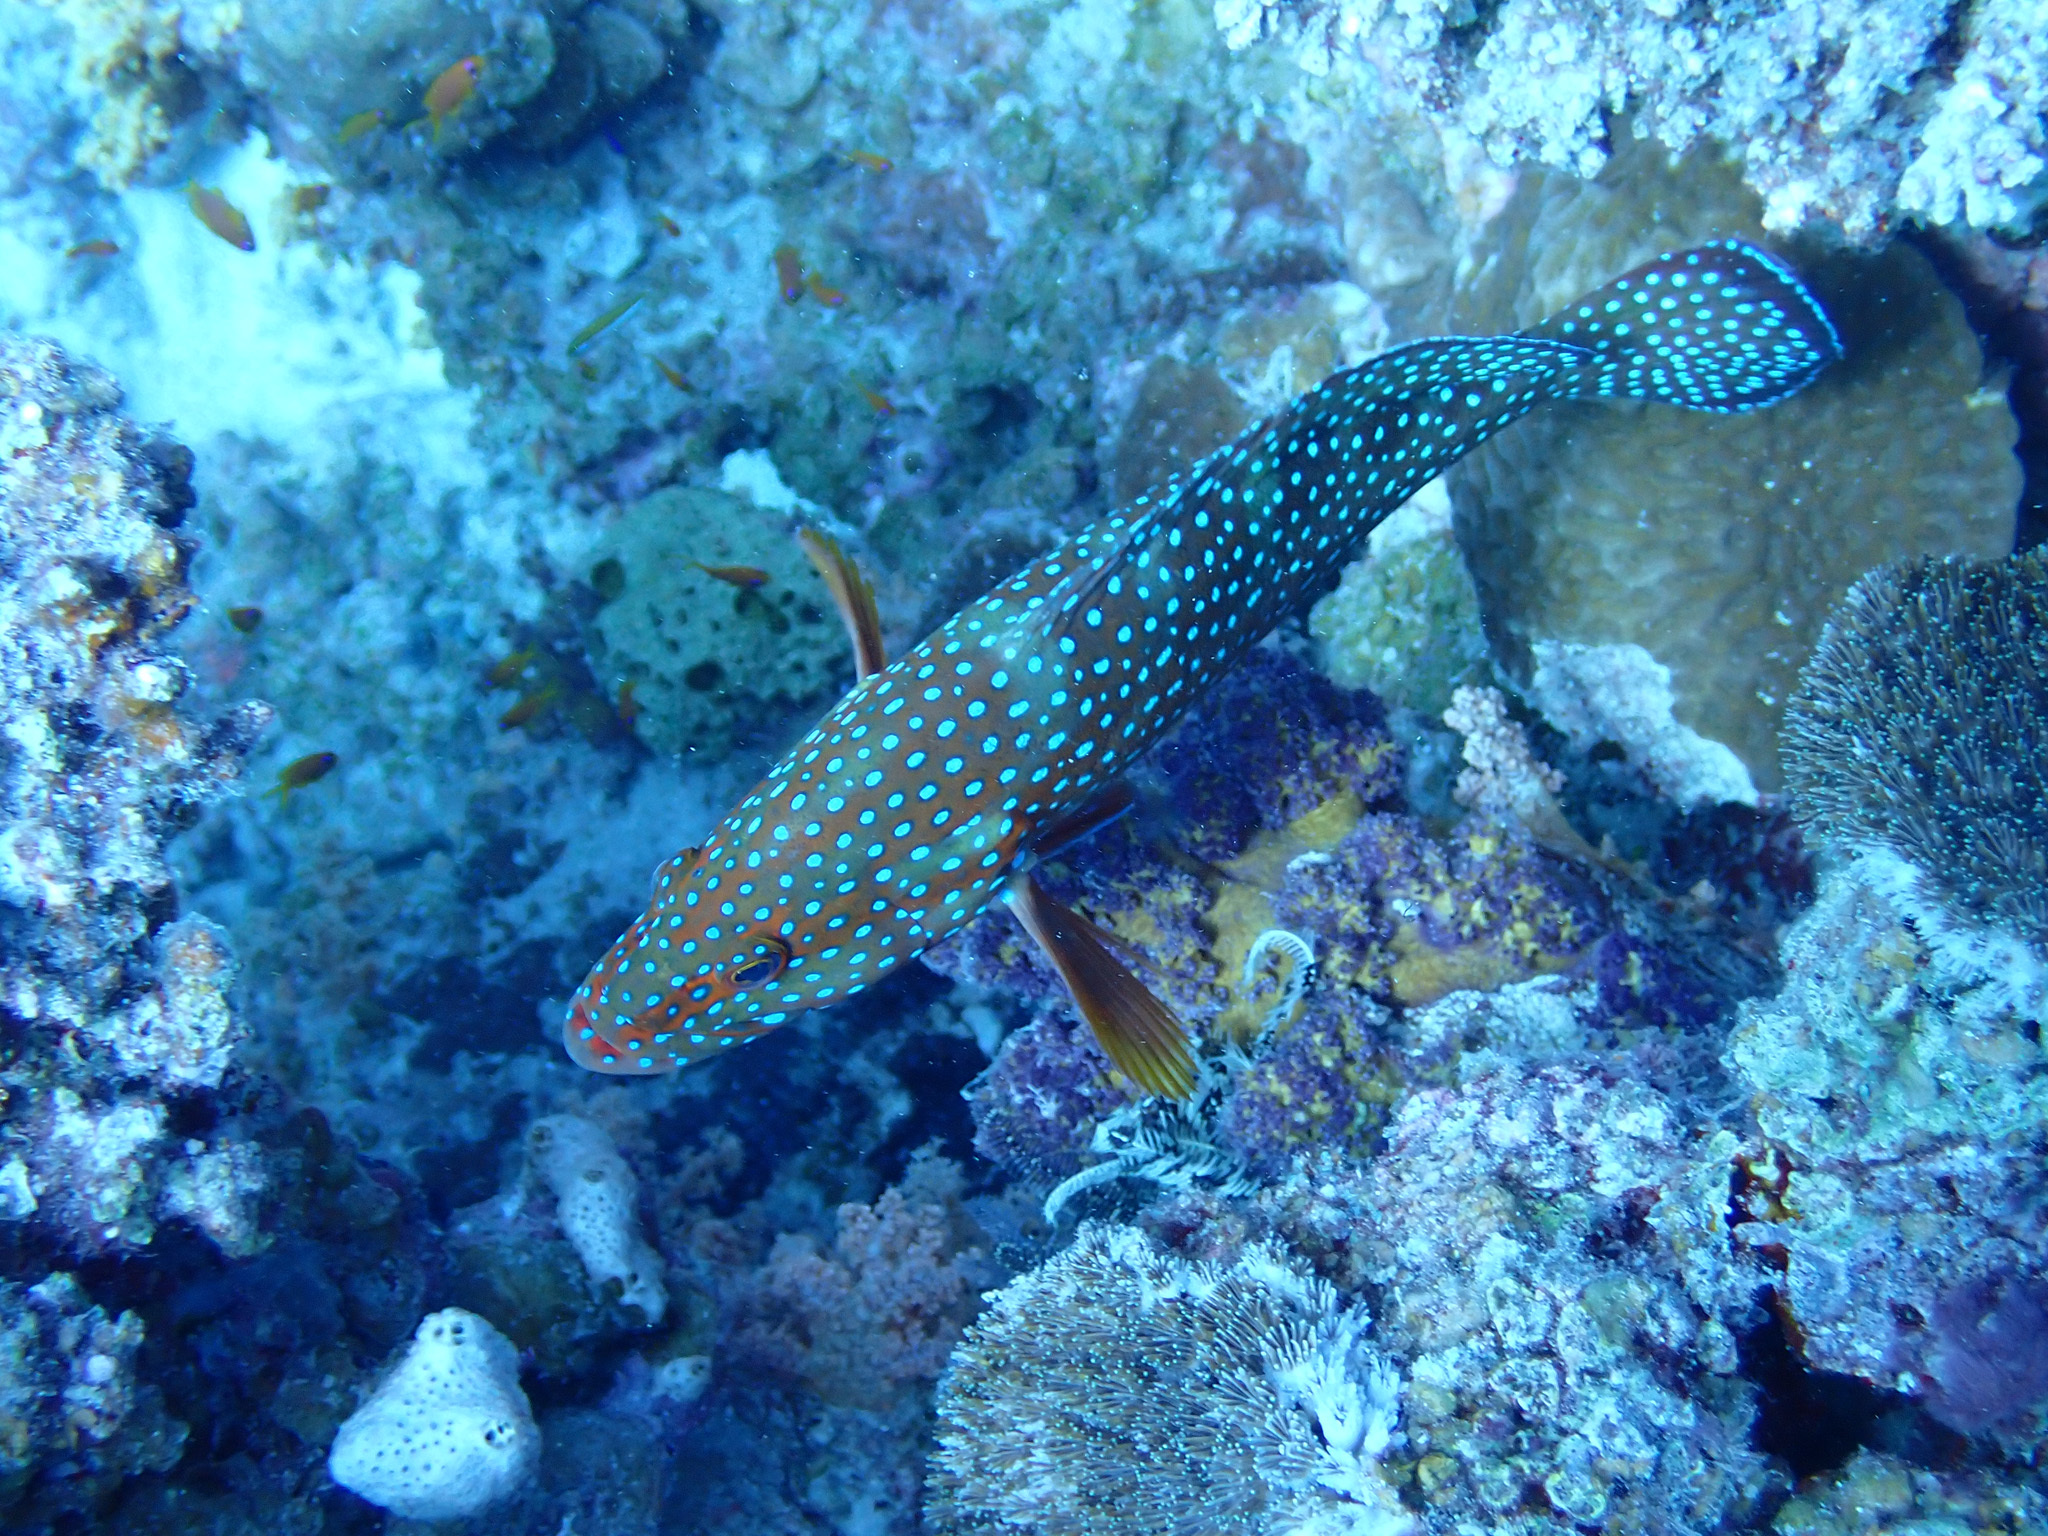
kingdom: Animalia
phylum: Chordata
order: Perciformes
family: Serranidae
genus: Cephalopholis
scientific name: Cephalopholis miniata
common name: Coral hind
